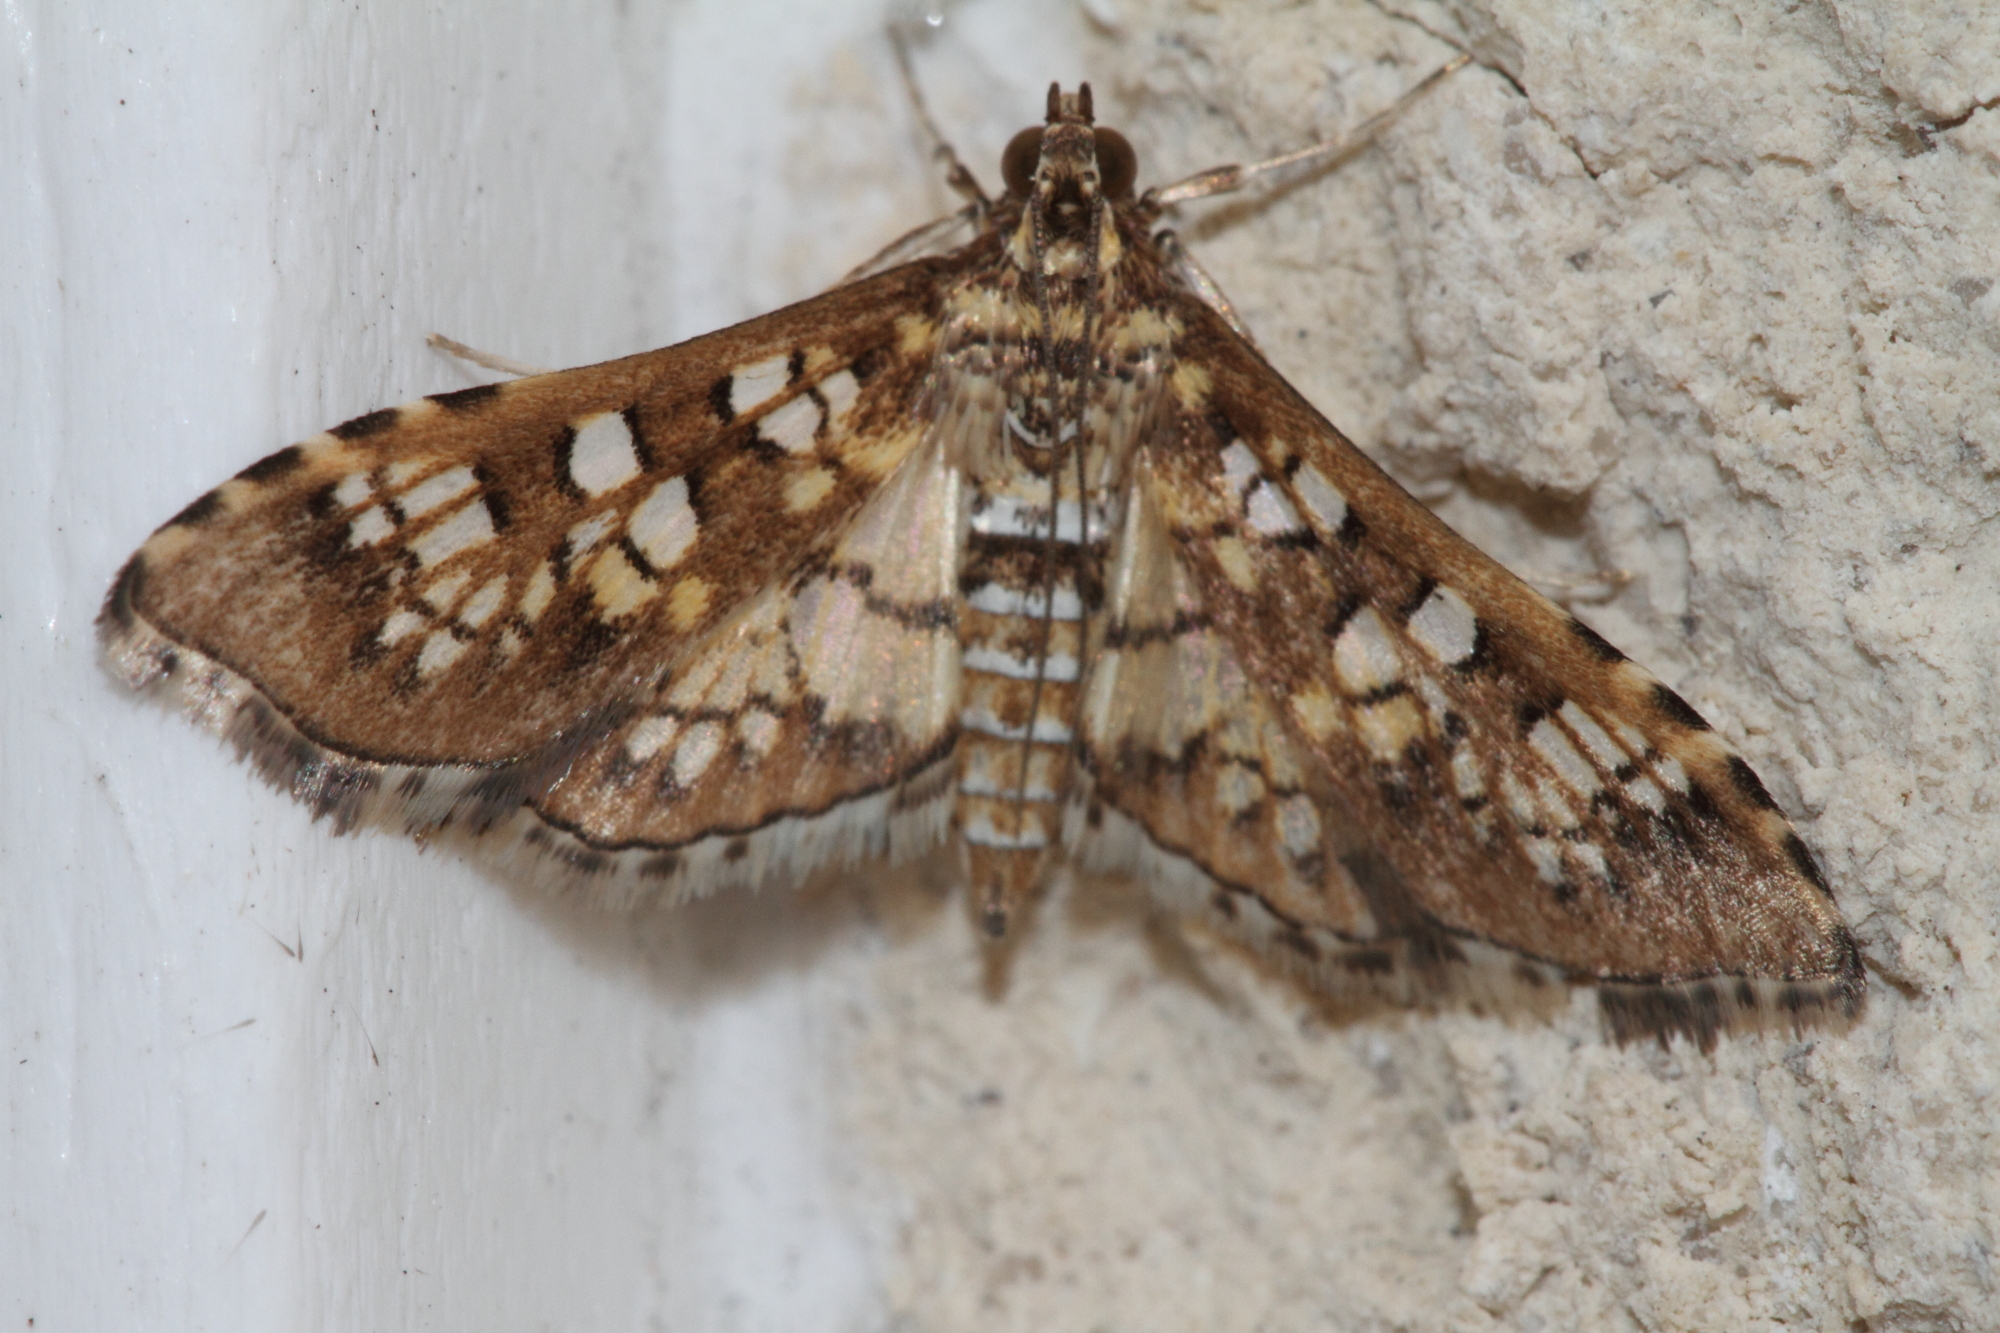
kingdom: Animalia
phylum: Arthropoda
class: Insecta
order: Lepidoptera
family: Crambidae
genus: Samea
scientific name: Samea ecclesialis
